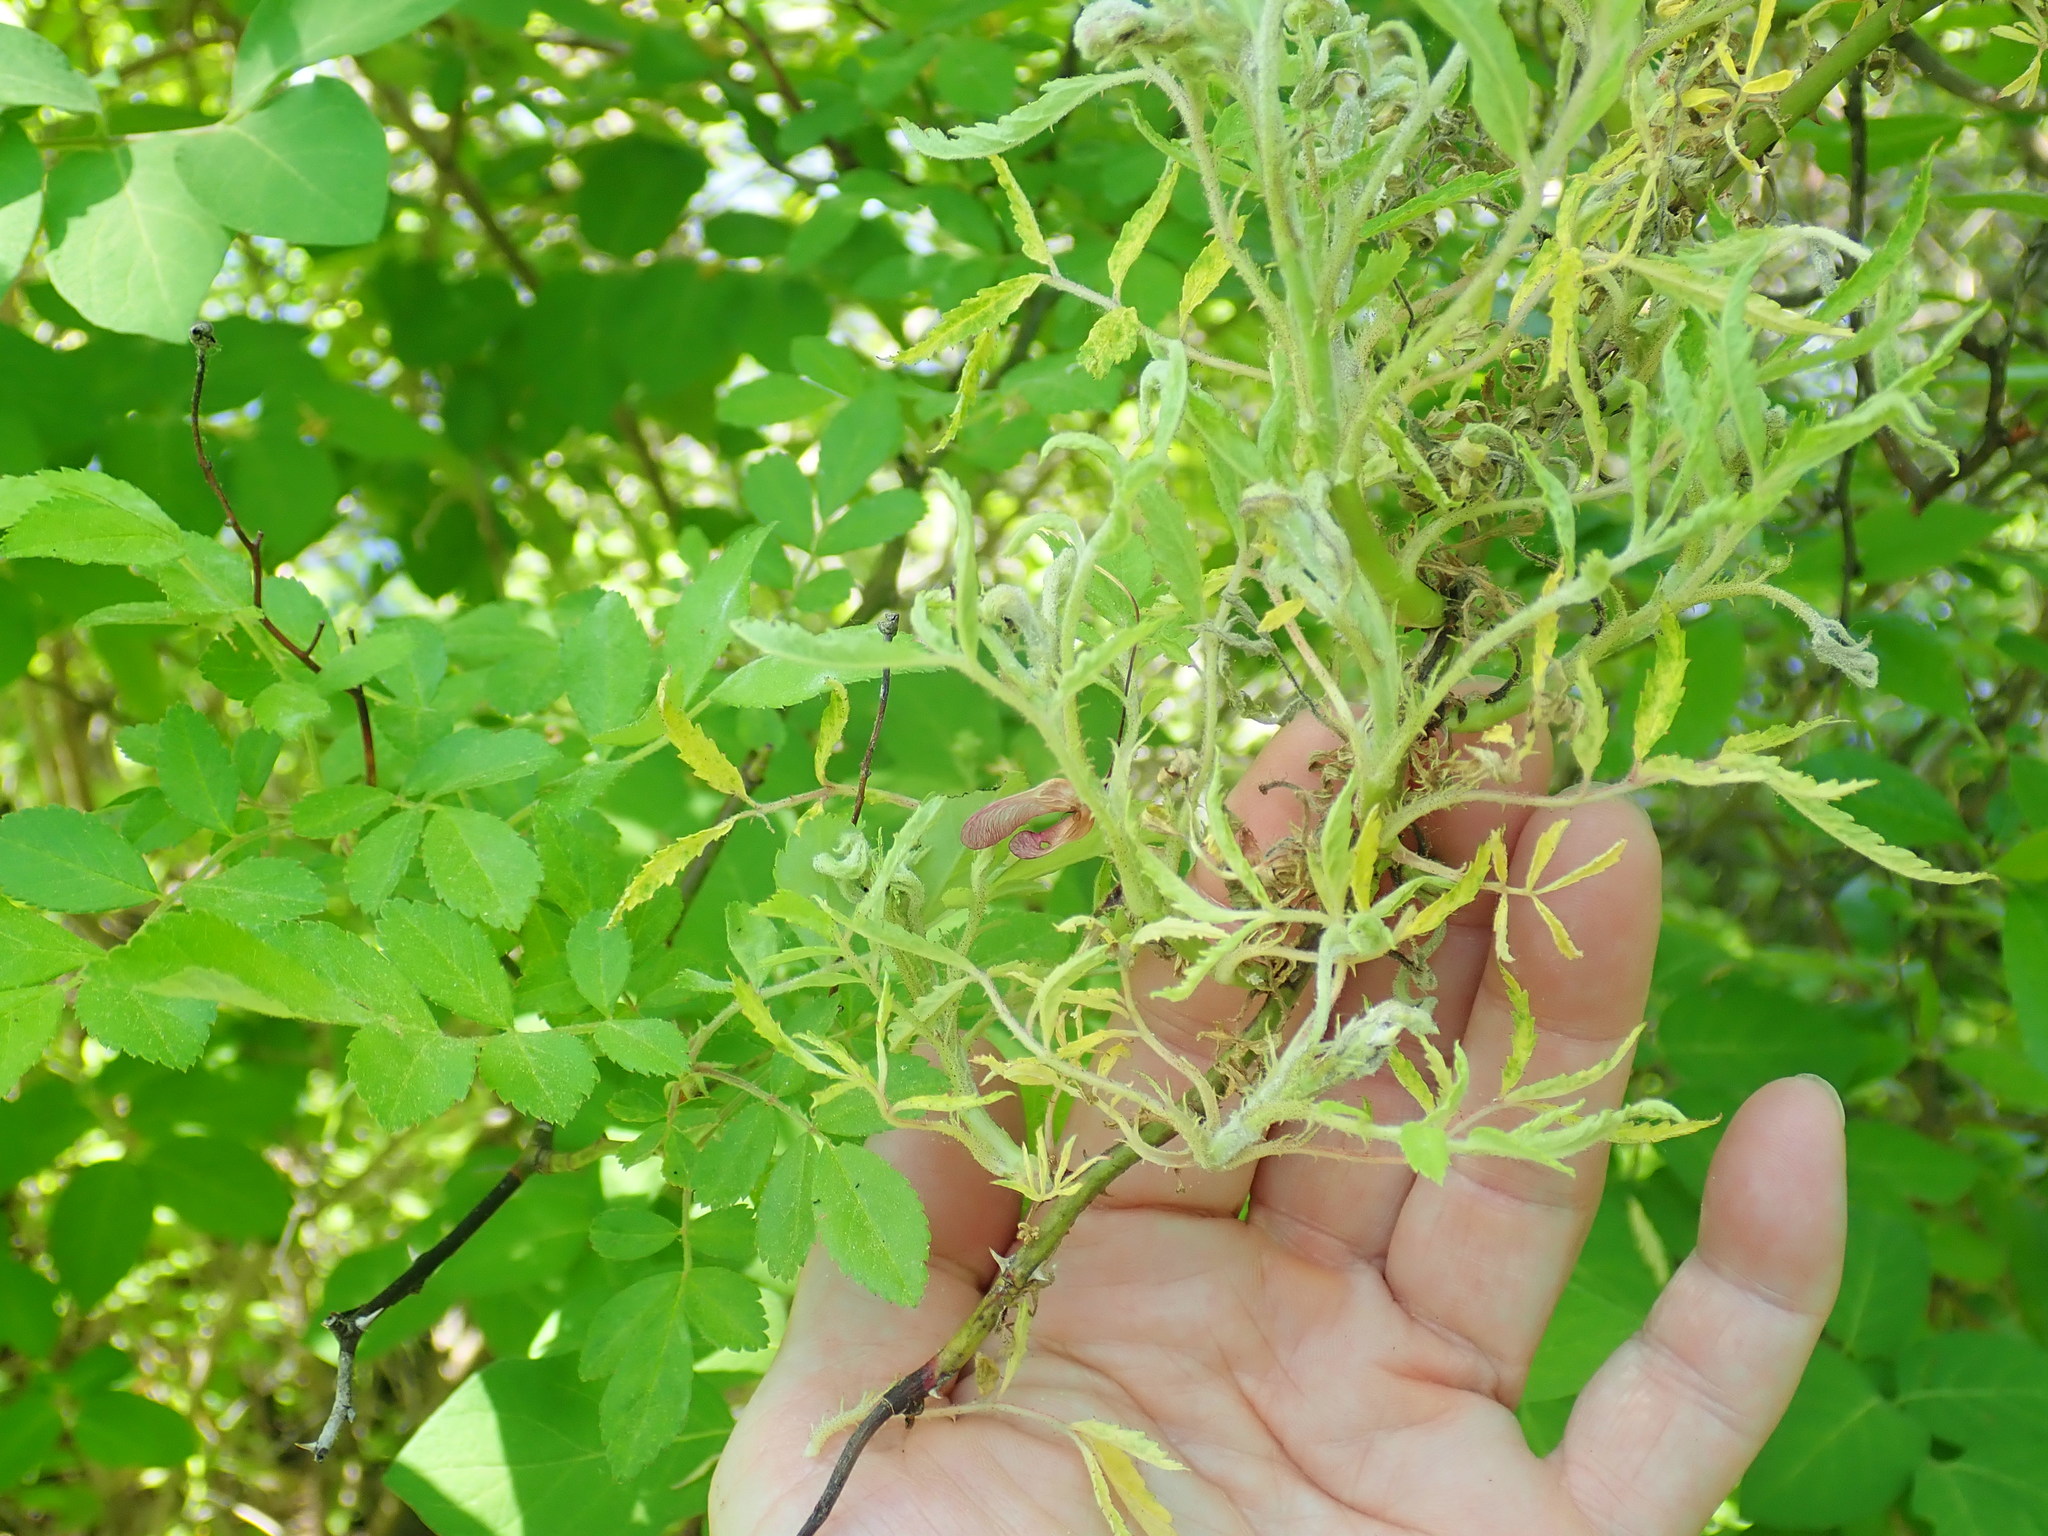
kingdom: Viruses
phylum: Negarnaviricota
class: Ellioviricetes
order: Bunyavirales
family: Fimoviridae
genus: Emaravirus
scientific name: Emaravirus rosae
